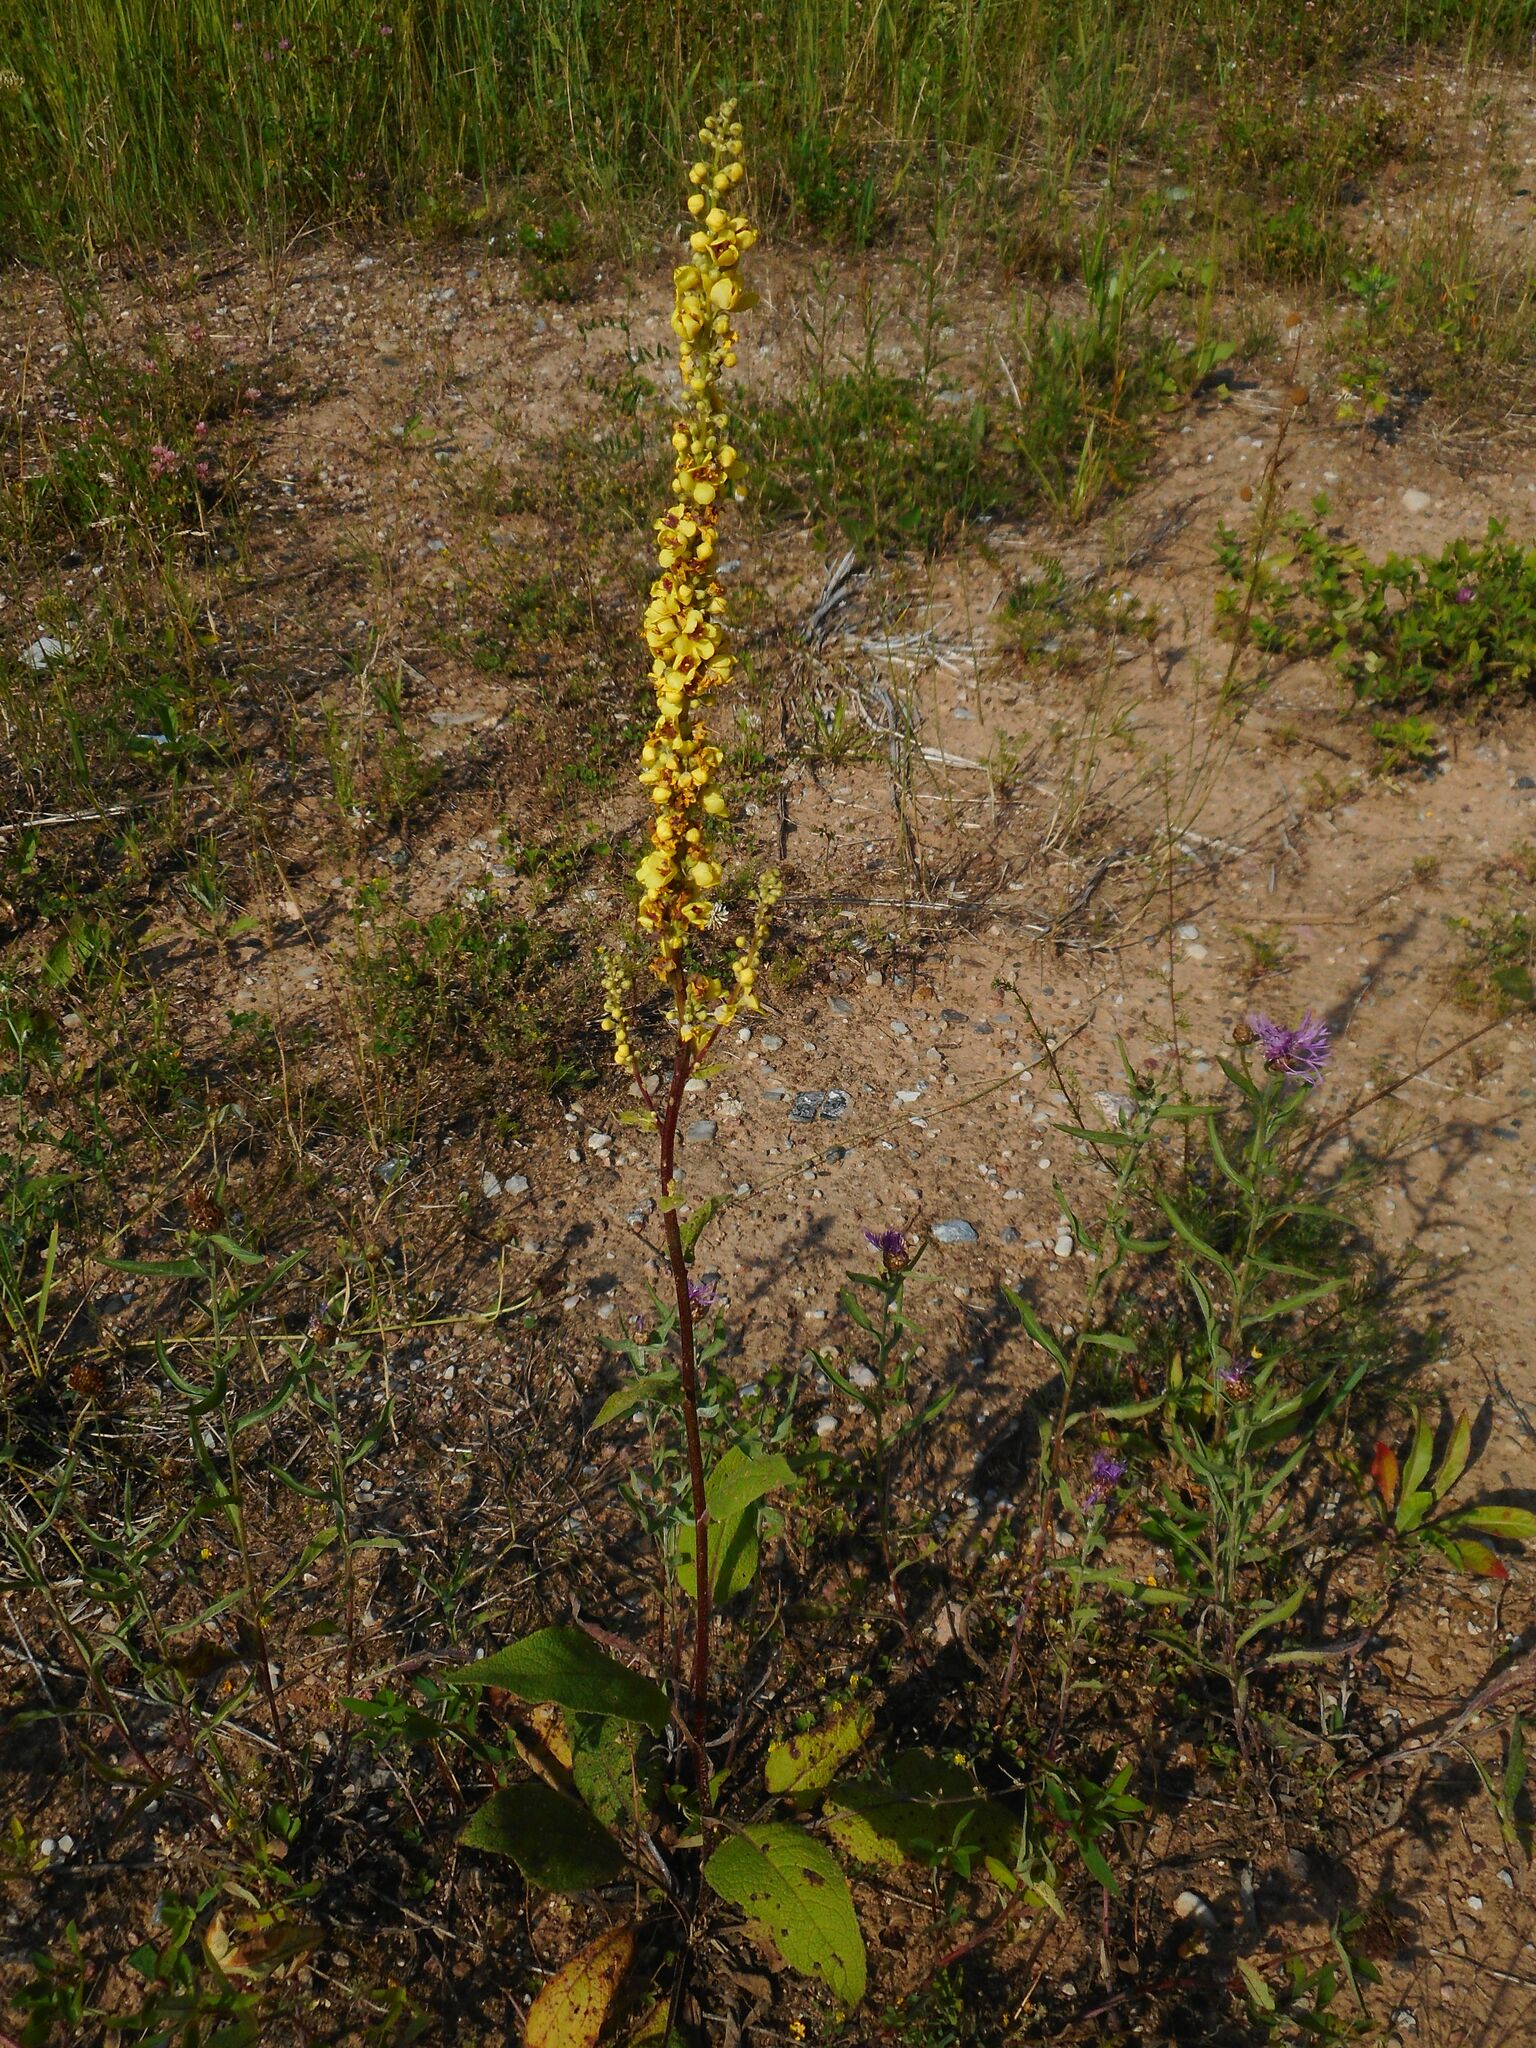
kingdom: Plantae
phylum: Tracheophyta
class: Magnoliopsida
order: Lamiales
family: Scrophulariaceae
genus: Verbascum
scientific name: Verbascum nigrum
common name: Dark mullein
